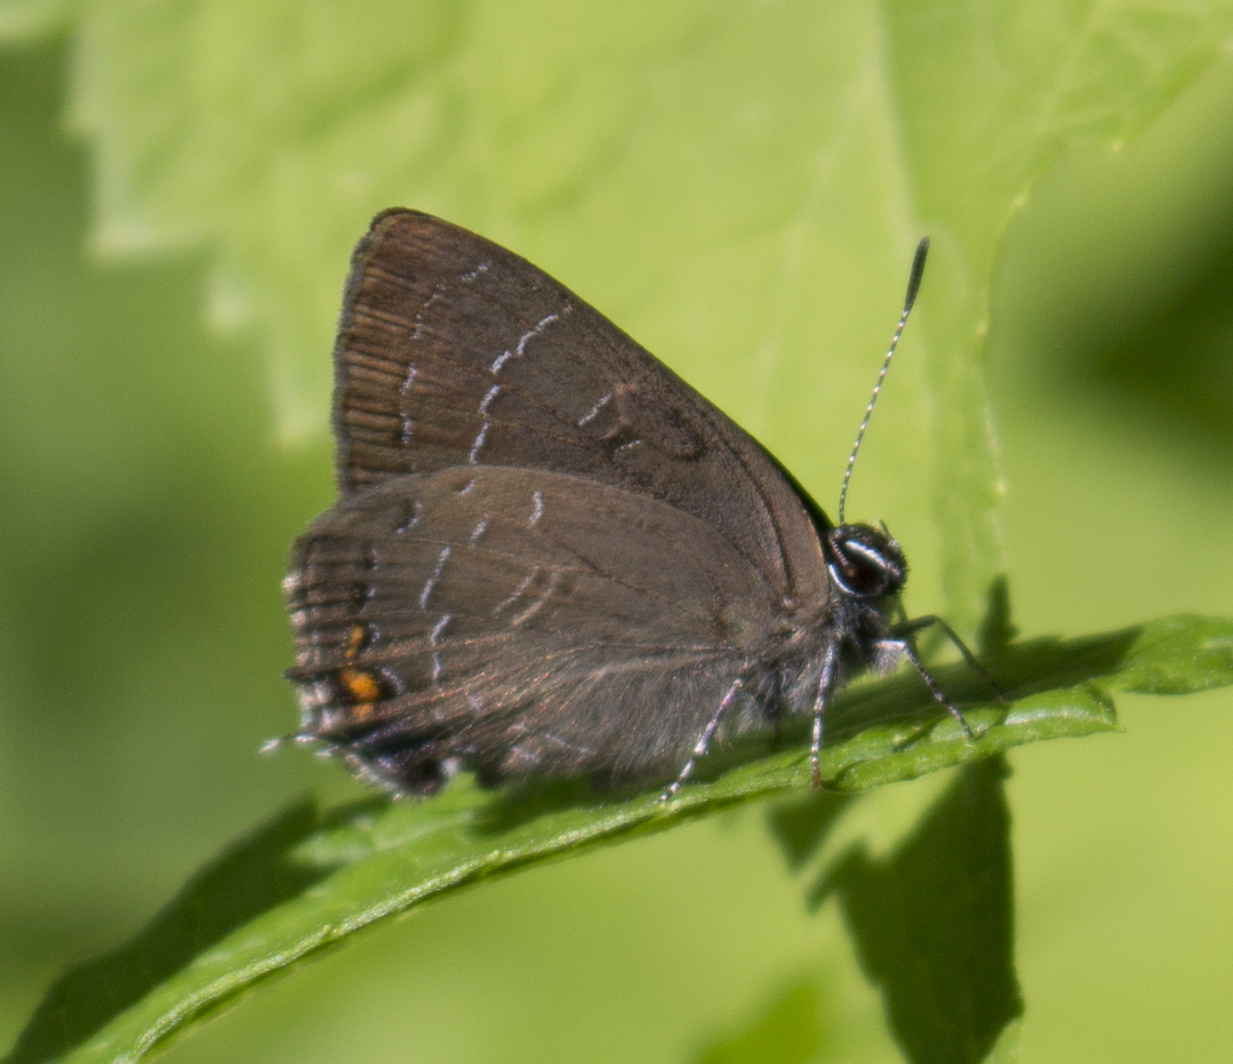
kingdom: Animalia
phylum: Arthropoda
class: Insecta
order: Lepidoptera
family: Lycaenidae
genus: Satyrium
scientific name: Satyrium calanus
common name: Banded hairstreak
